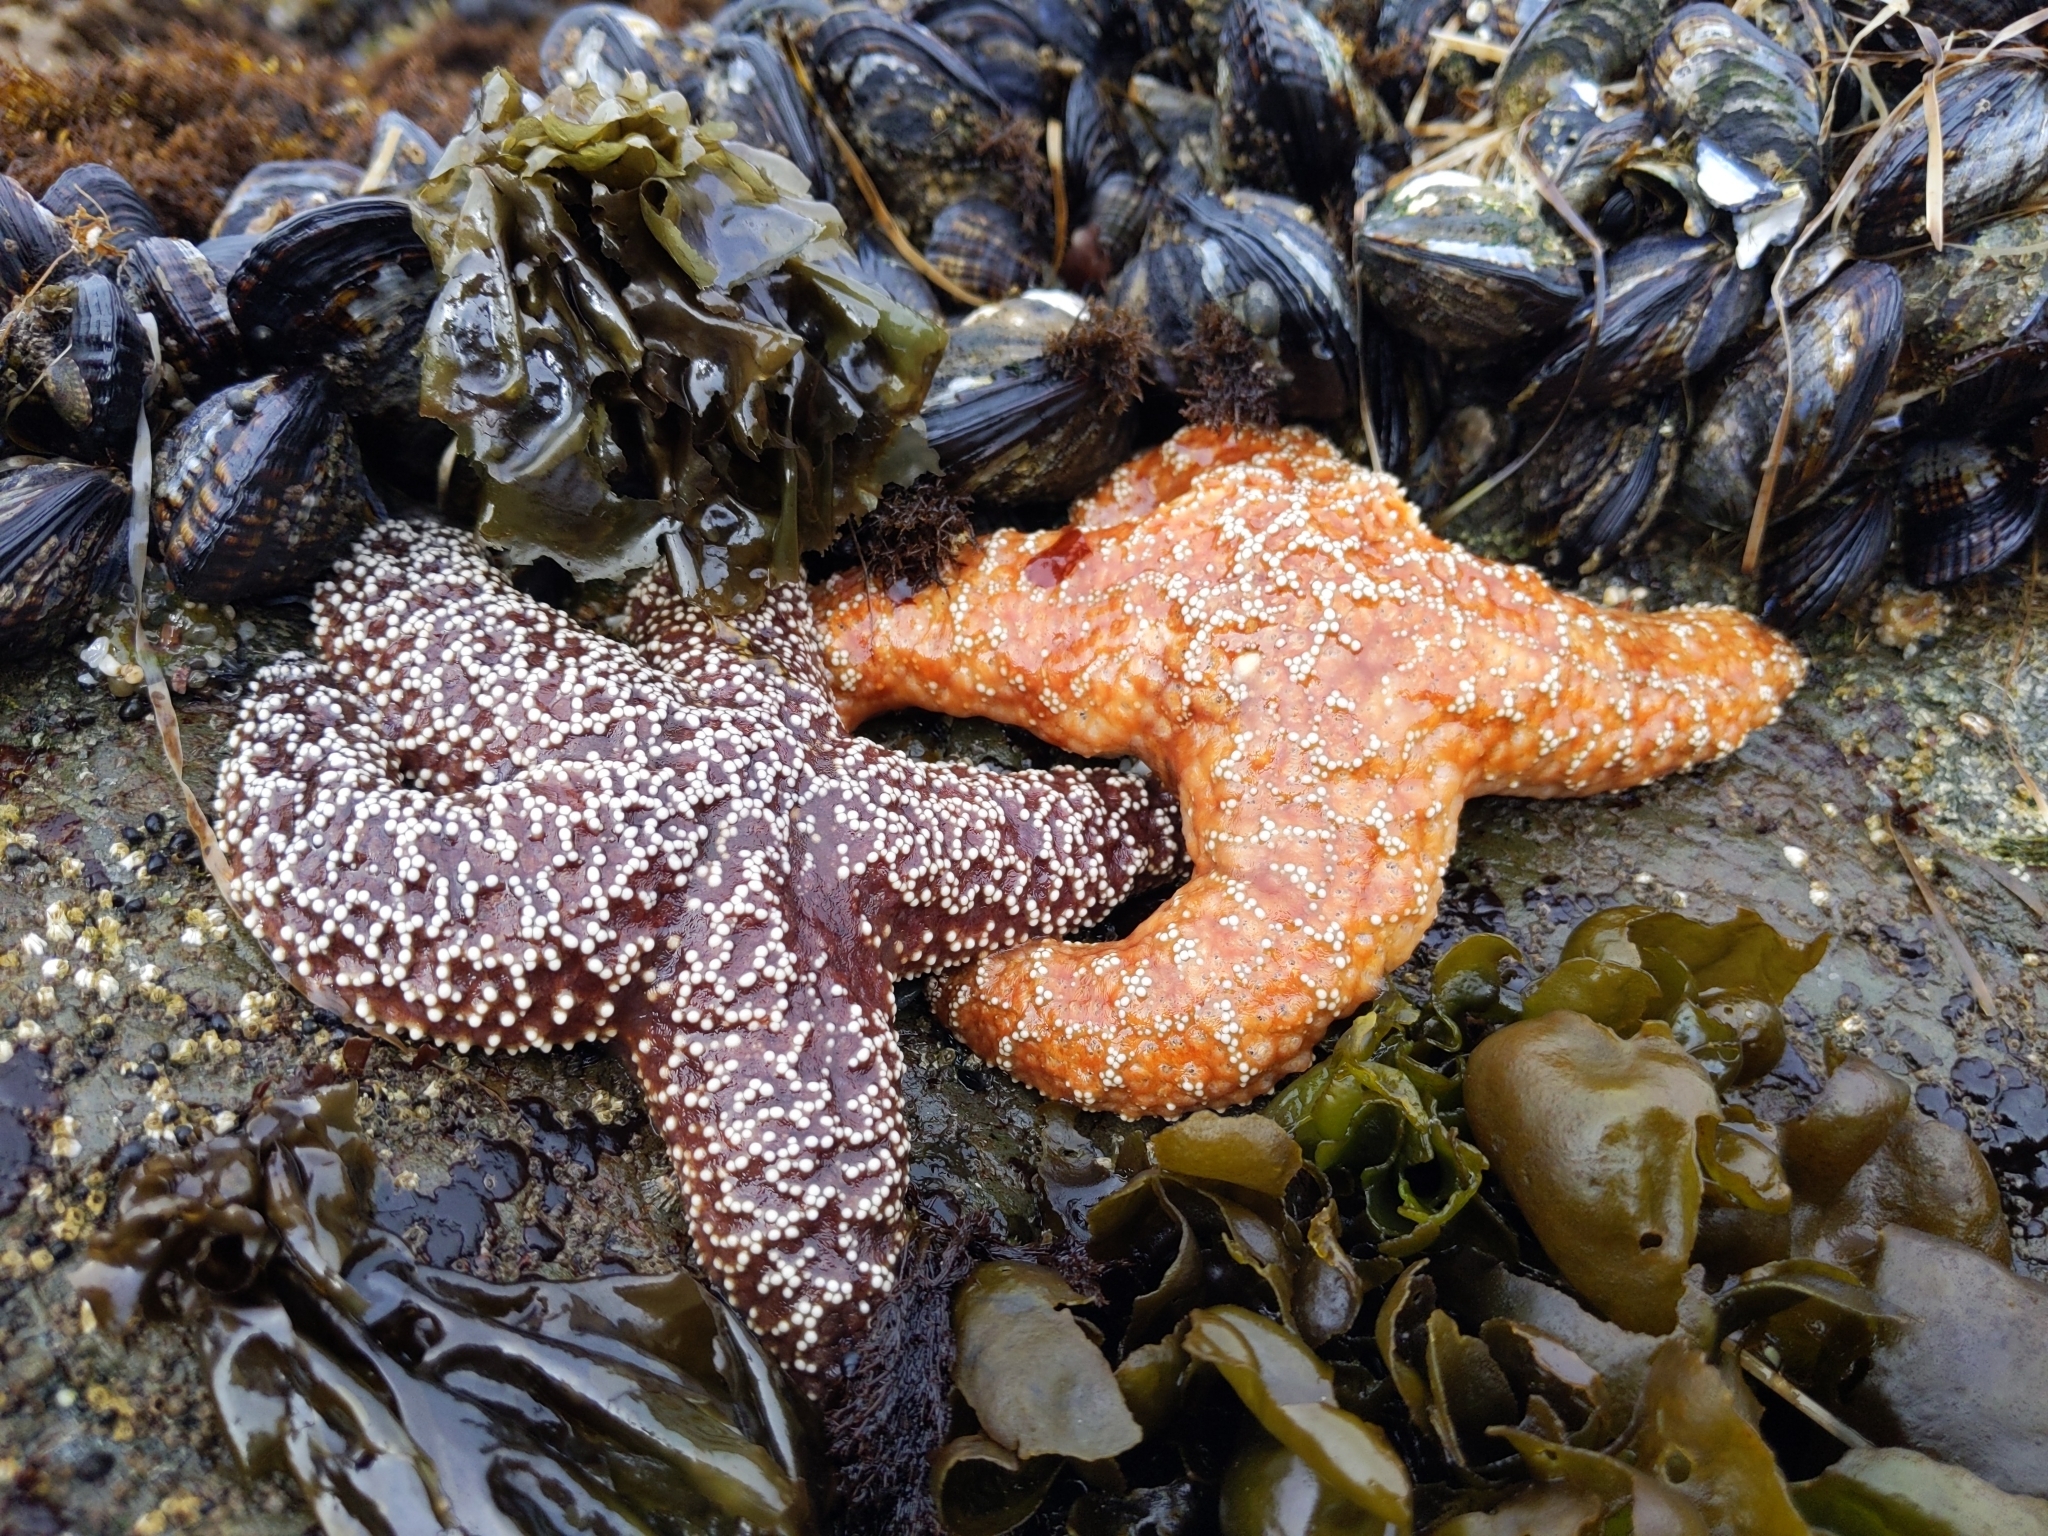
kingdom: Animalia
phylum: Echinodermata
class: Asteroidea
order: Forcipulatida
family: Asteriidae
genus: Pisaster
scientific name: Pisaster ochraceus
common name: Ochre stars
